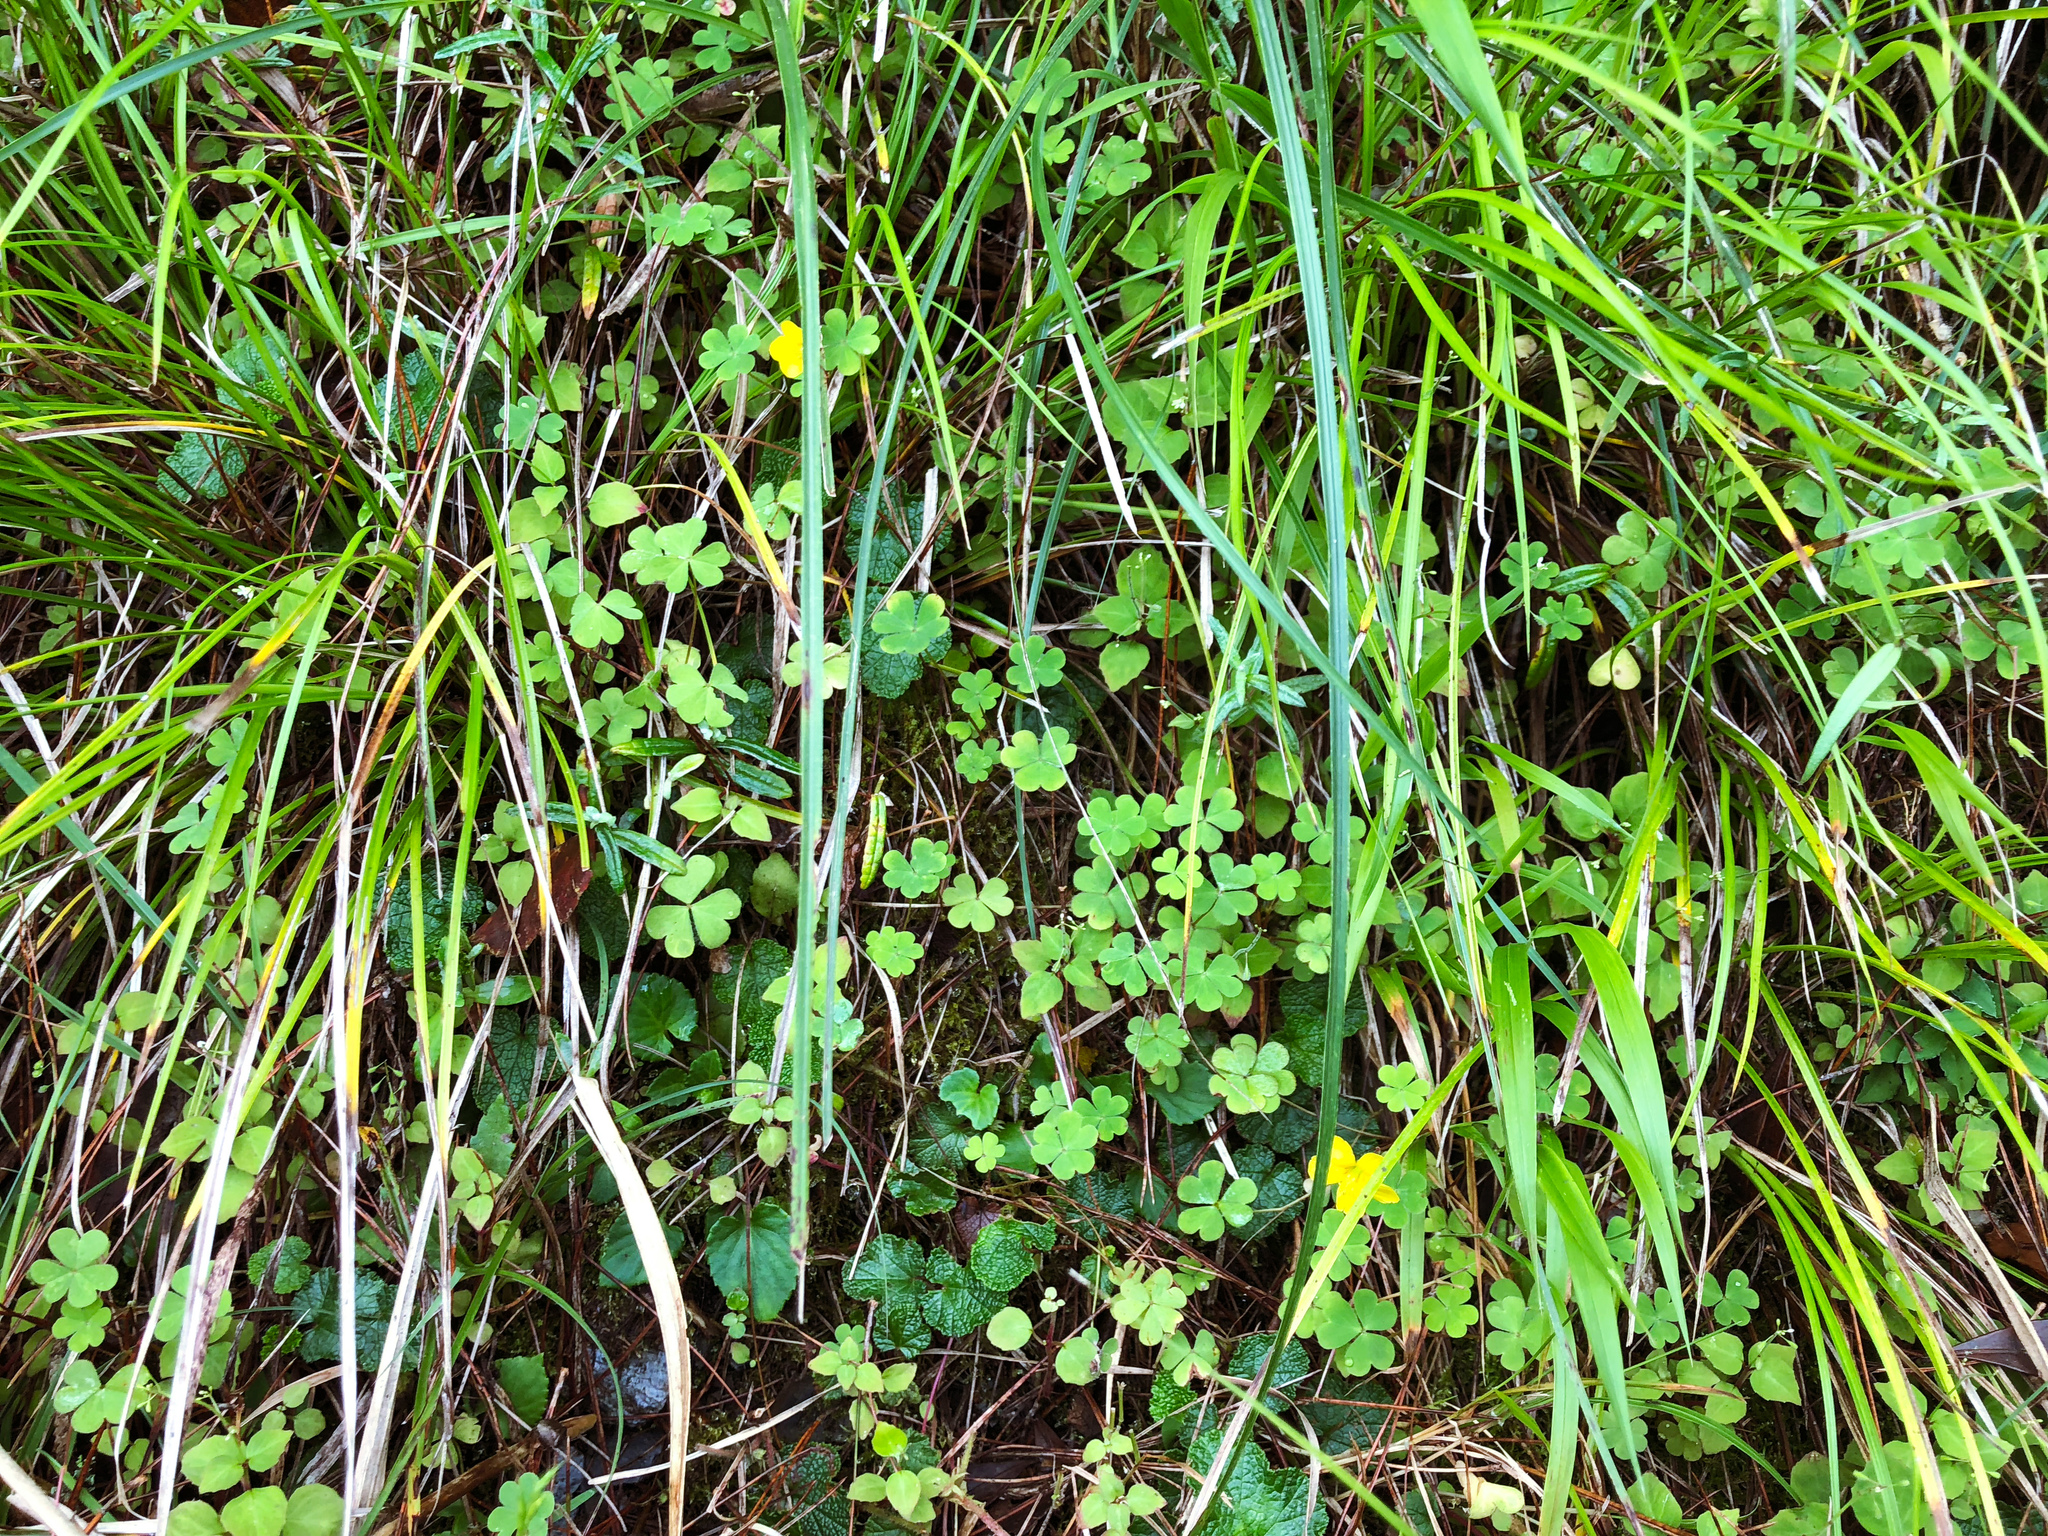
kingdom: Plantae
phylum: Tracheophyta
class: Magnoliopsida
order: Oxalidales
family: Oxalidaceae
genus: Oxalis
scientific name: Oxalis corniculata
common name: Procumbent yellow-sorrel
